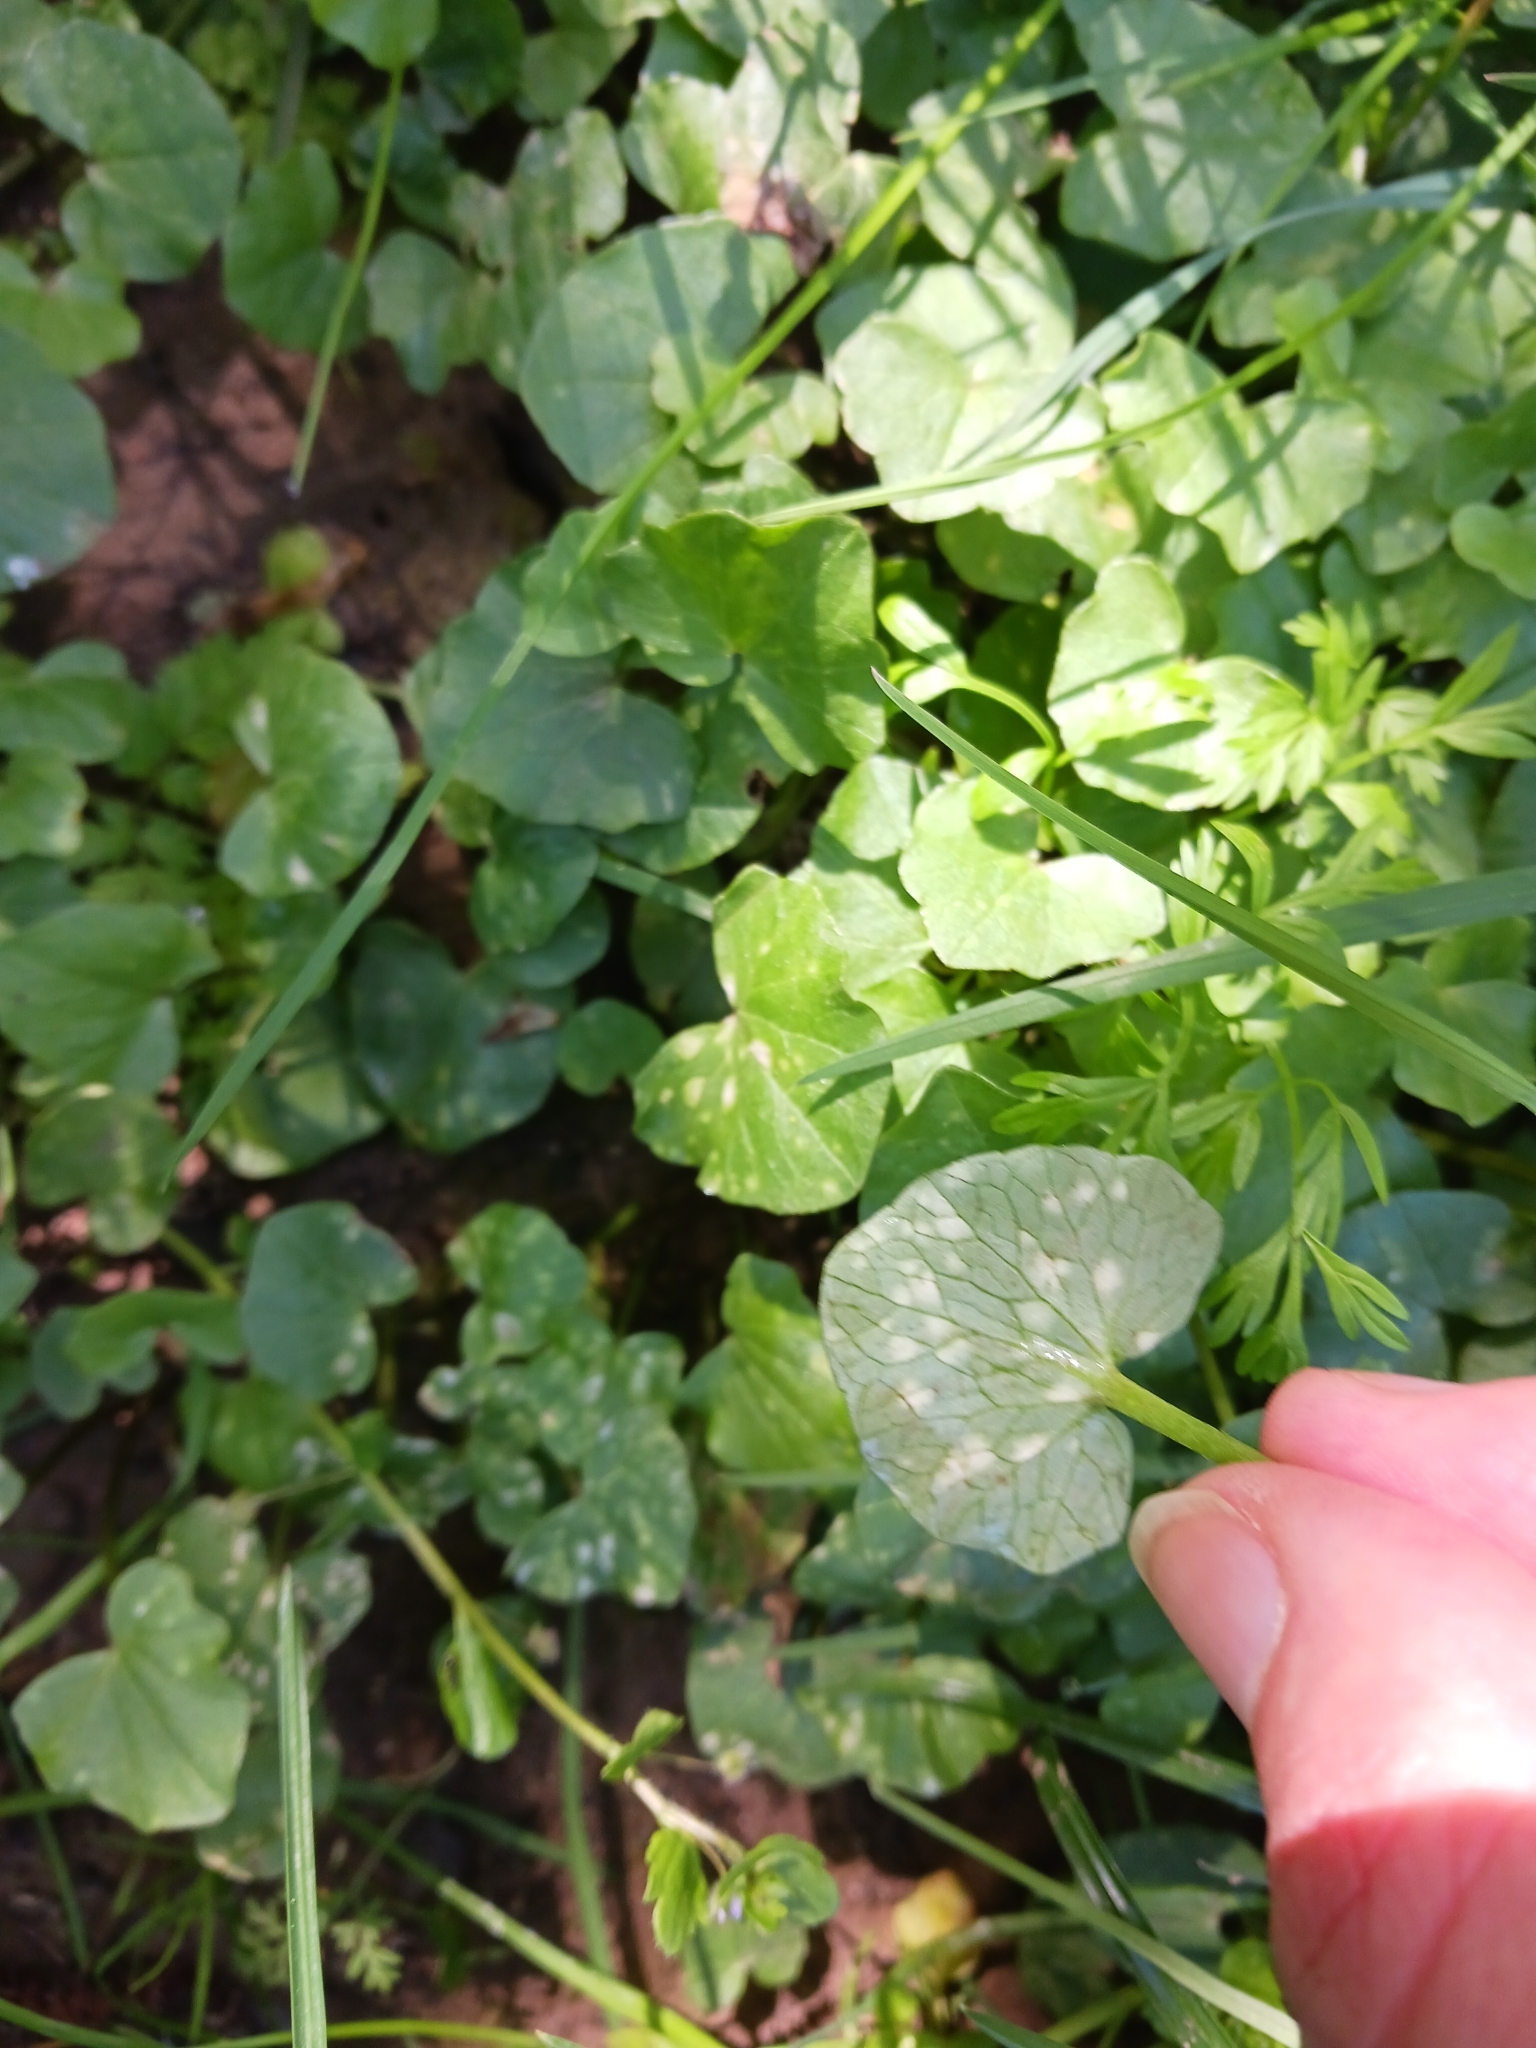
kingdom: Fungi
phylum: Basidiomycota
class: Exobasidiomycetes
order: Entylomatales
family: Entylomataceae
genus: Entyloma
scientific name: Entyloma ficariae
